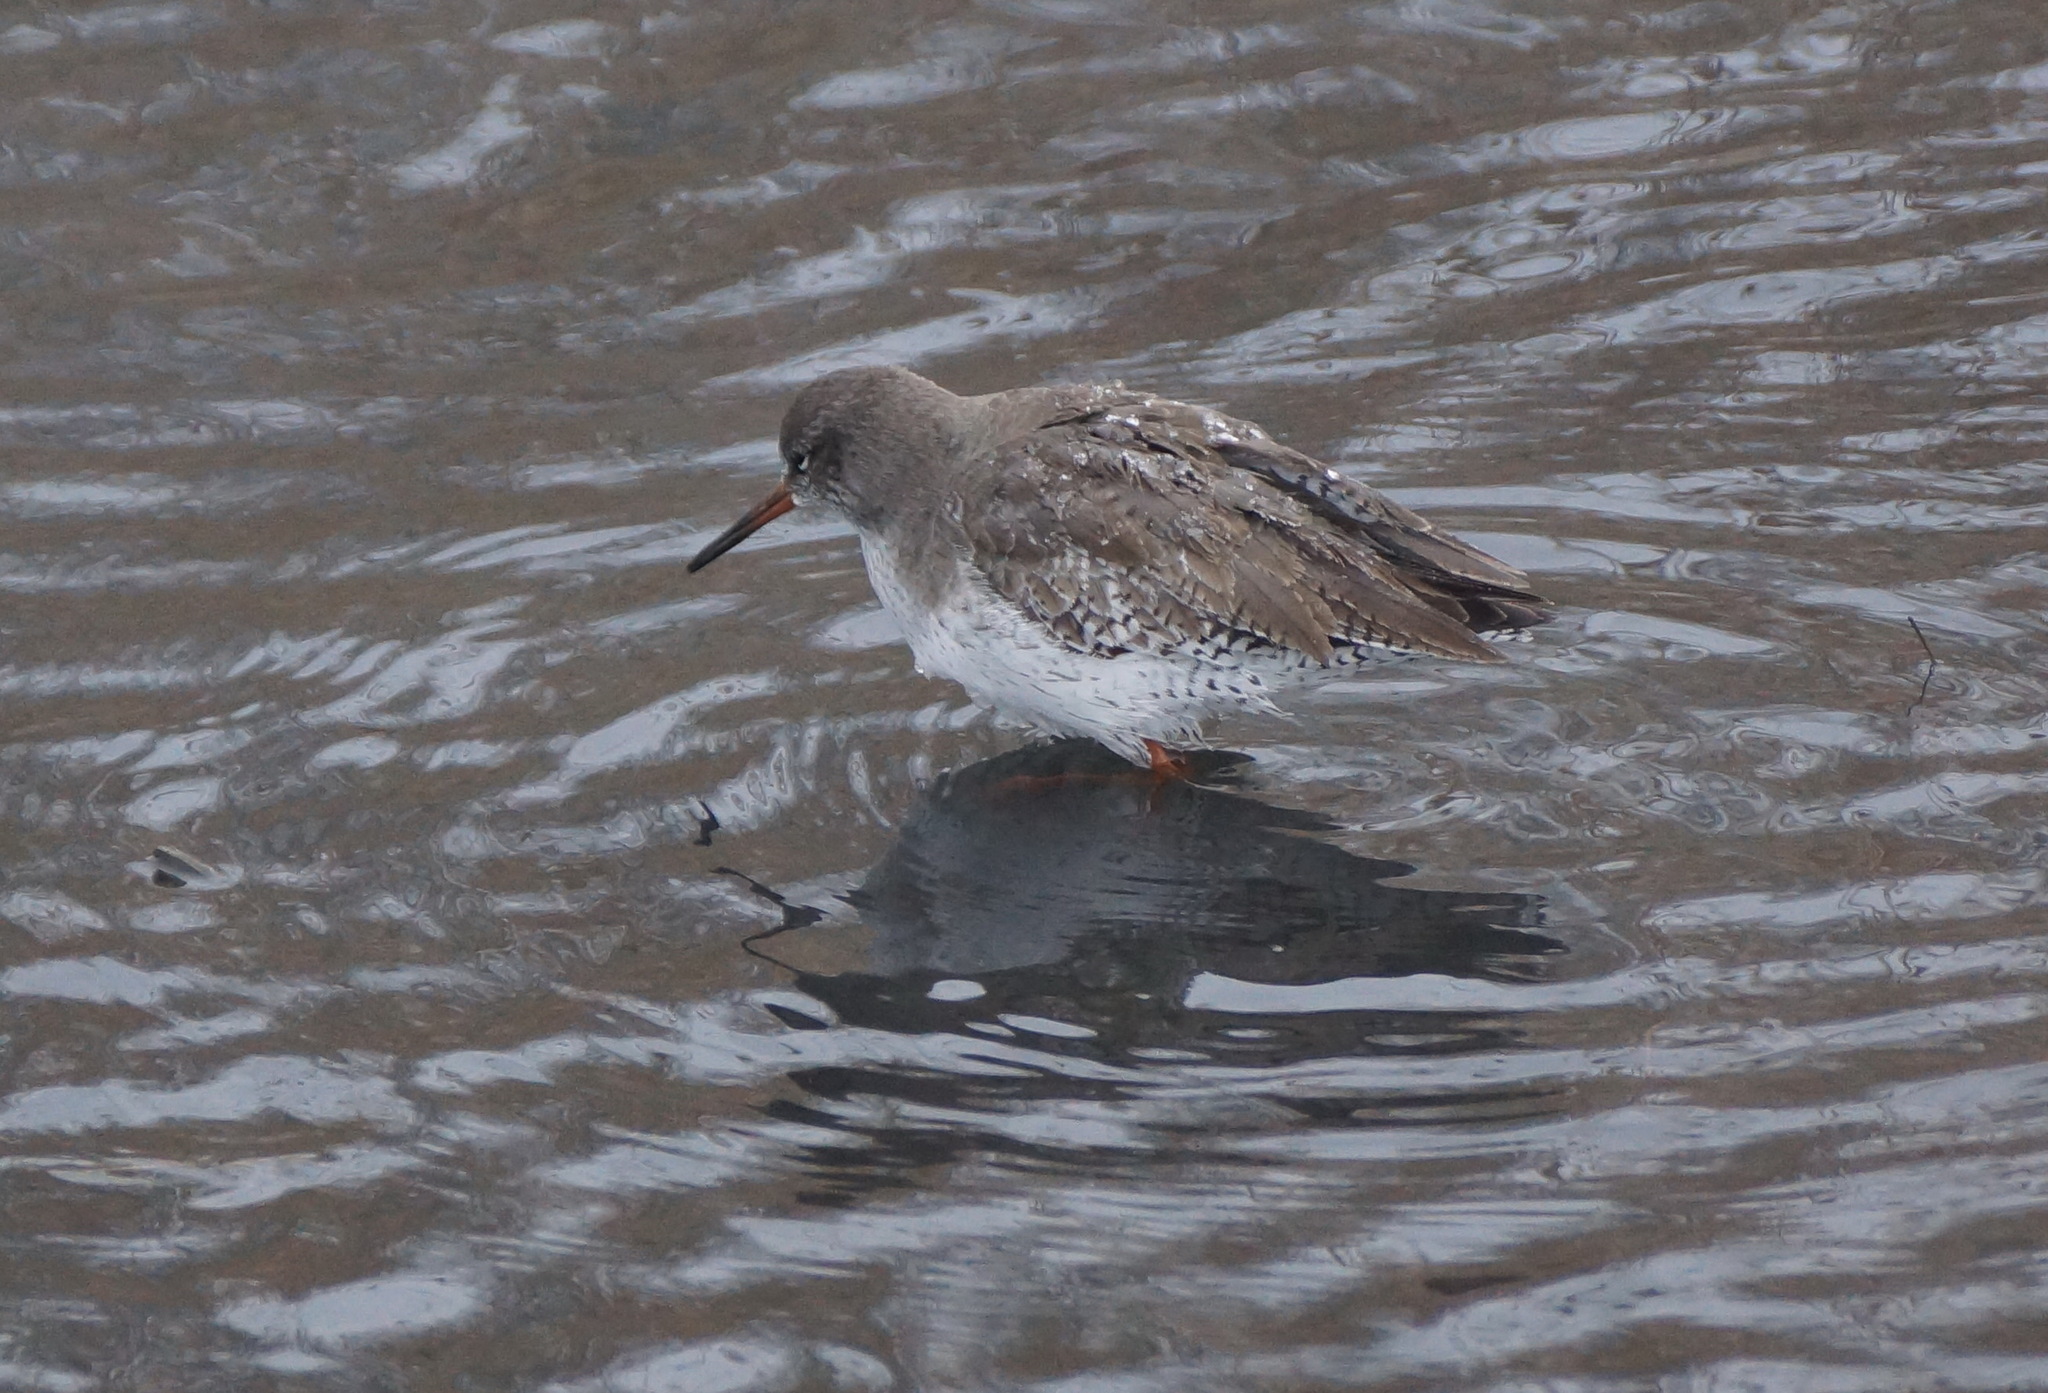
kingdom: Animalia
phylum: Chordata
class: Aves
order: Charadriiformes
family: Scolopacidae
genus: Tringa
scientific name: Tringa totanus
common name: Common redshank
